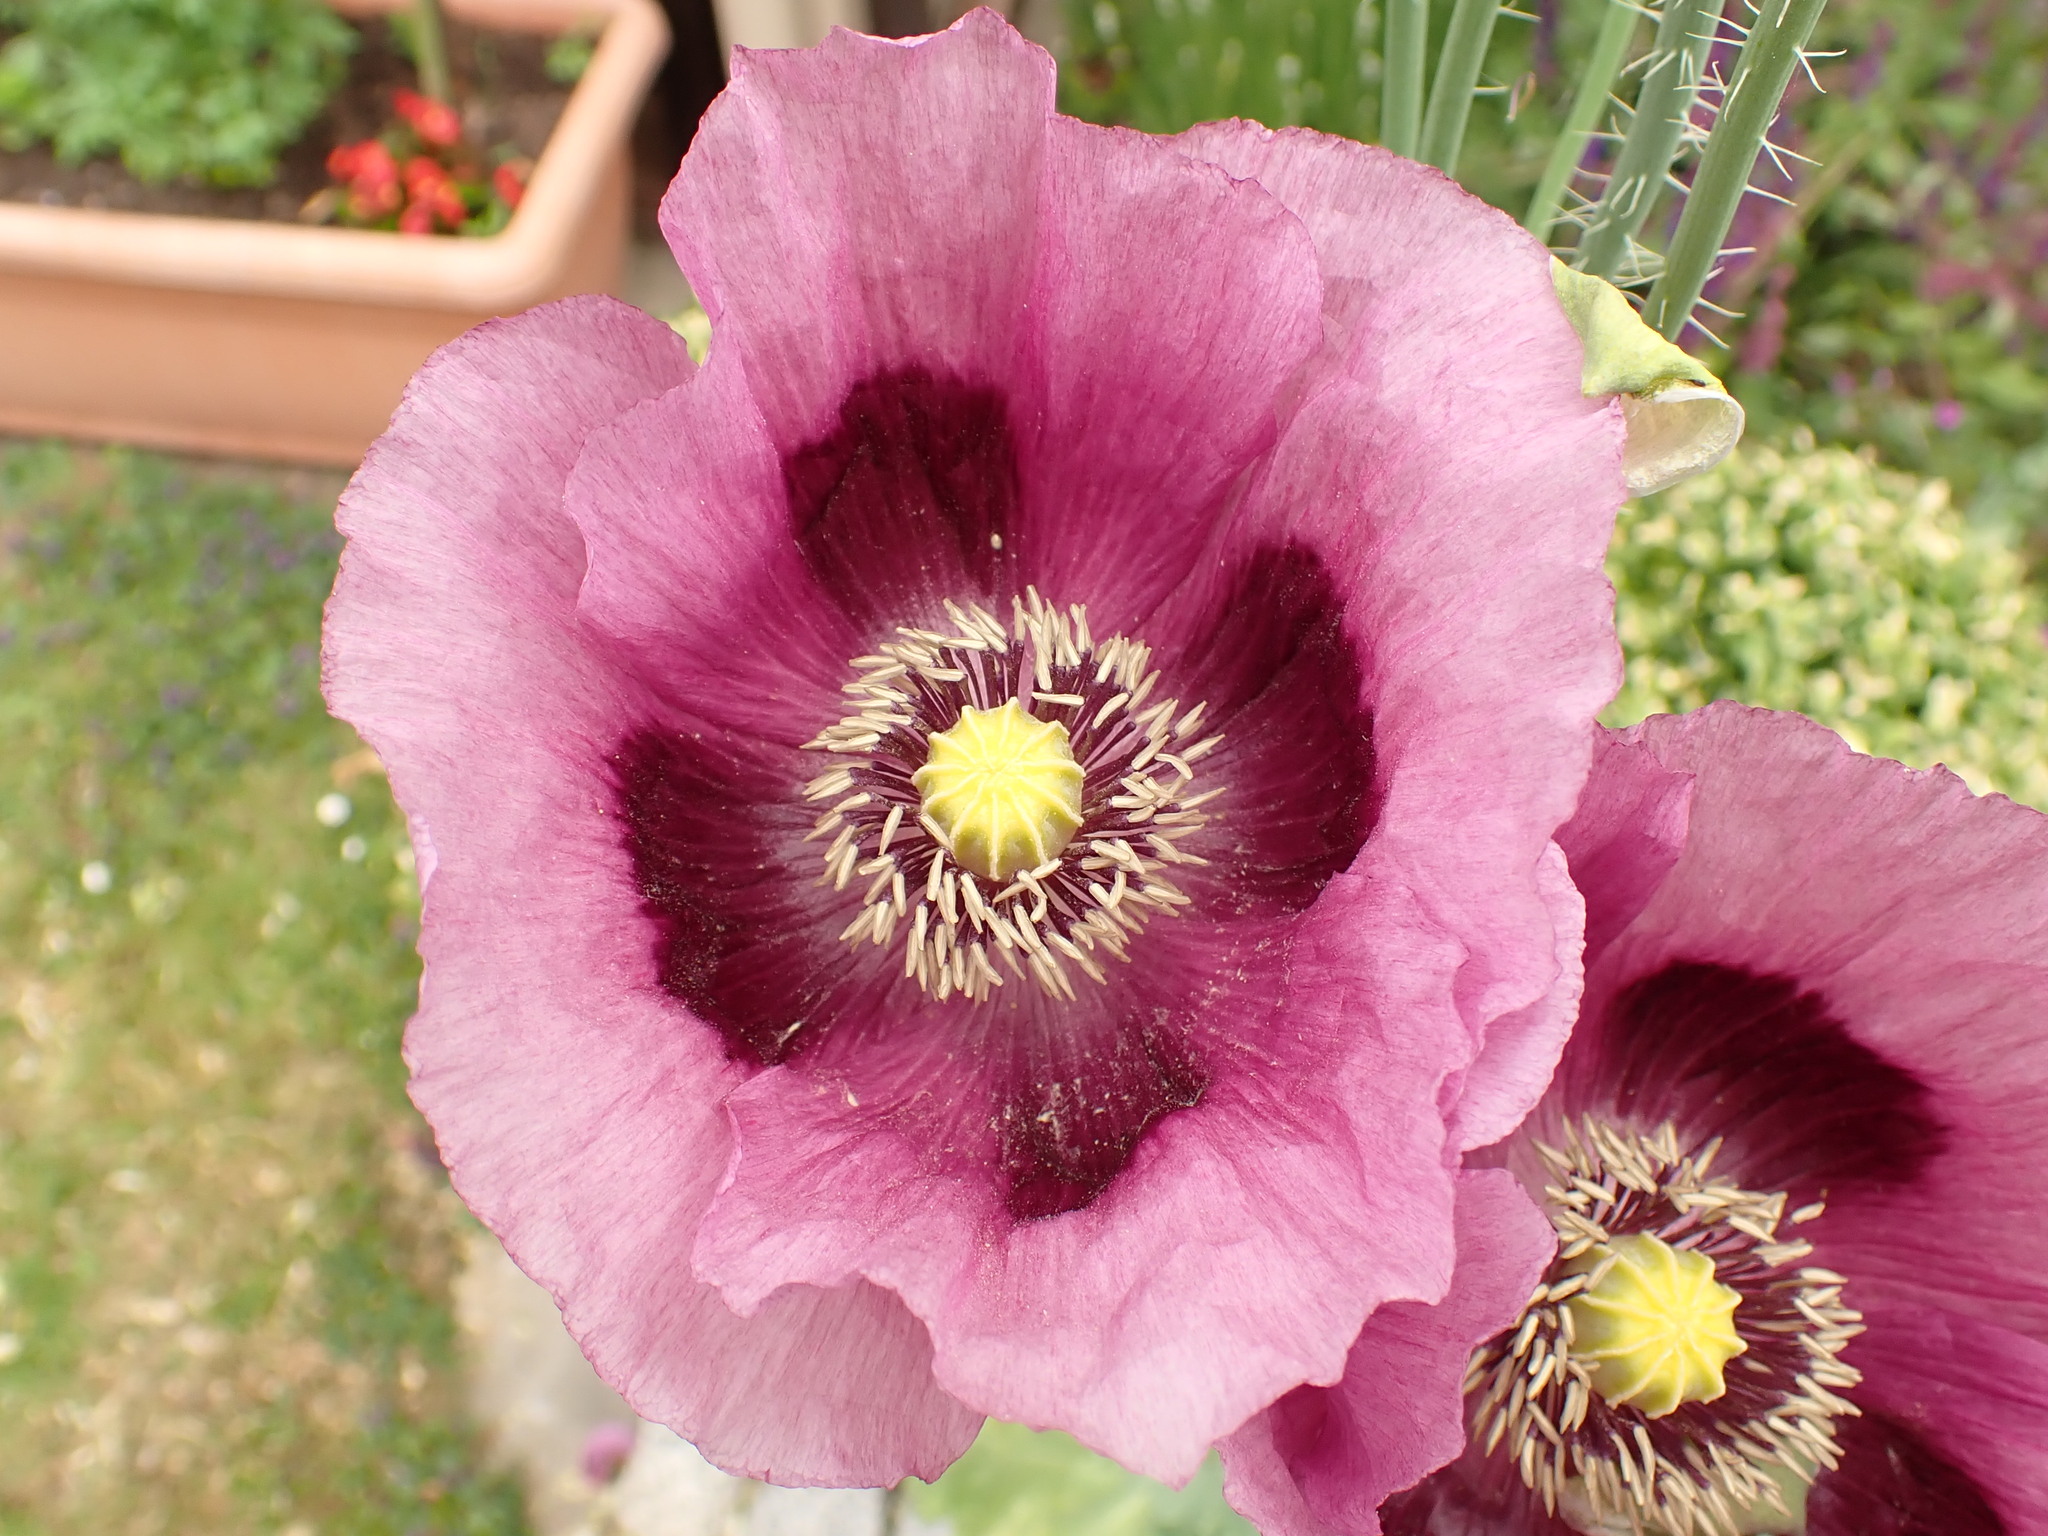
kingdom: Plantae
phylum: Tracheophyta
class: Magnoliopsida
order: Ranunculales
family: Papaveraceae
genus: Papaver
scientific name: Papaver somniferum
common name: Opium poppy
